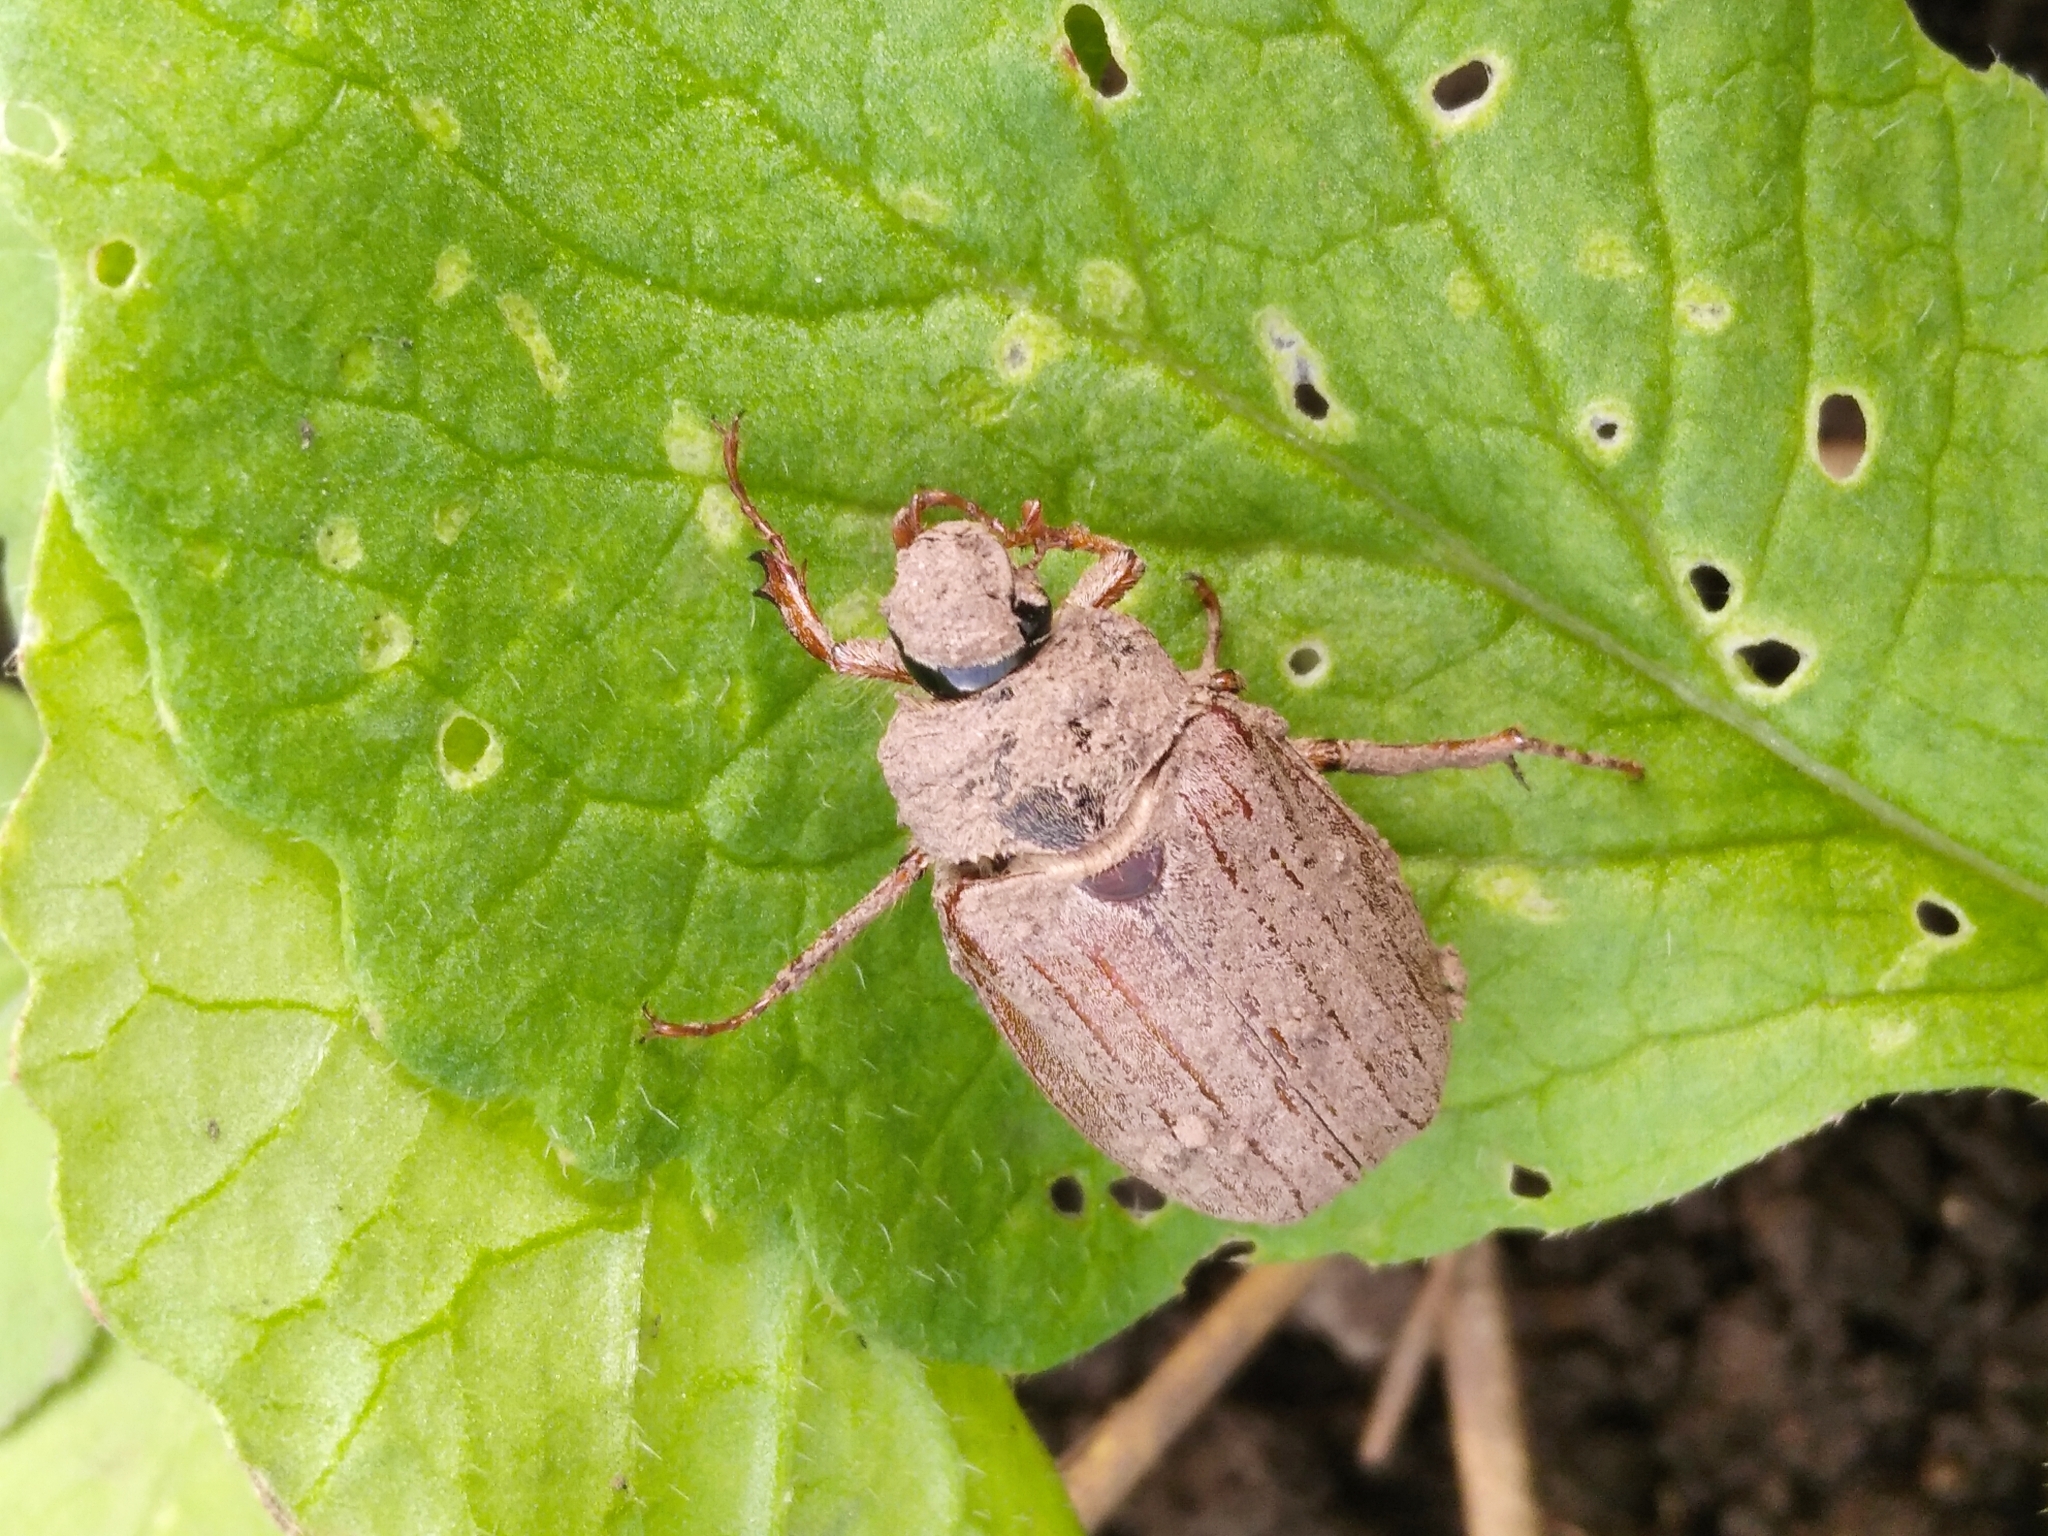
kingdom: Animalia
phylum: Arthropoda
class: Insecta
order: Coleoptera
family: Scarabaeidae
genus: Melolontha
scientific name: Melolontha melolontha
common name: Cockchafer maybeetle
